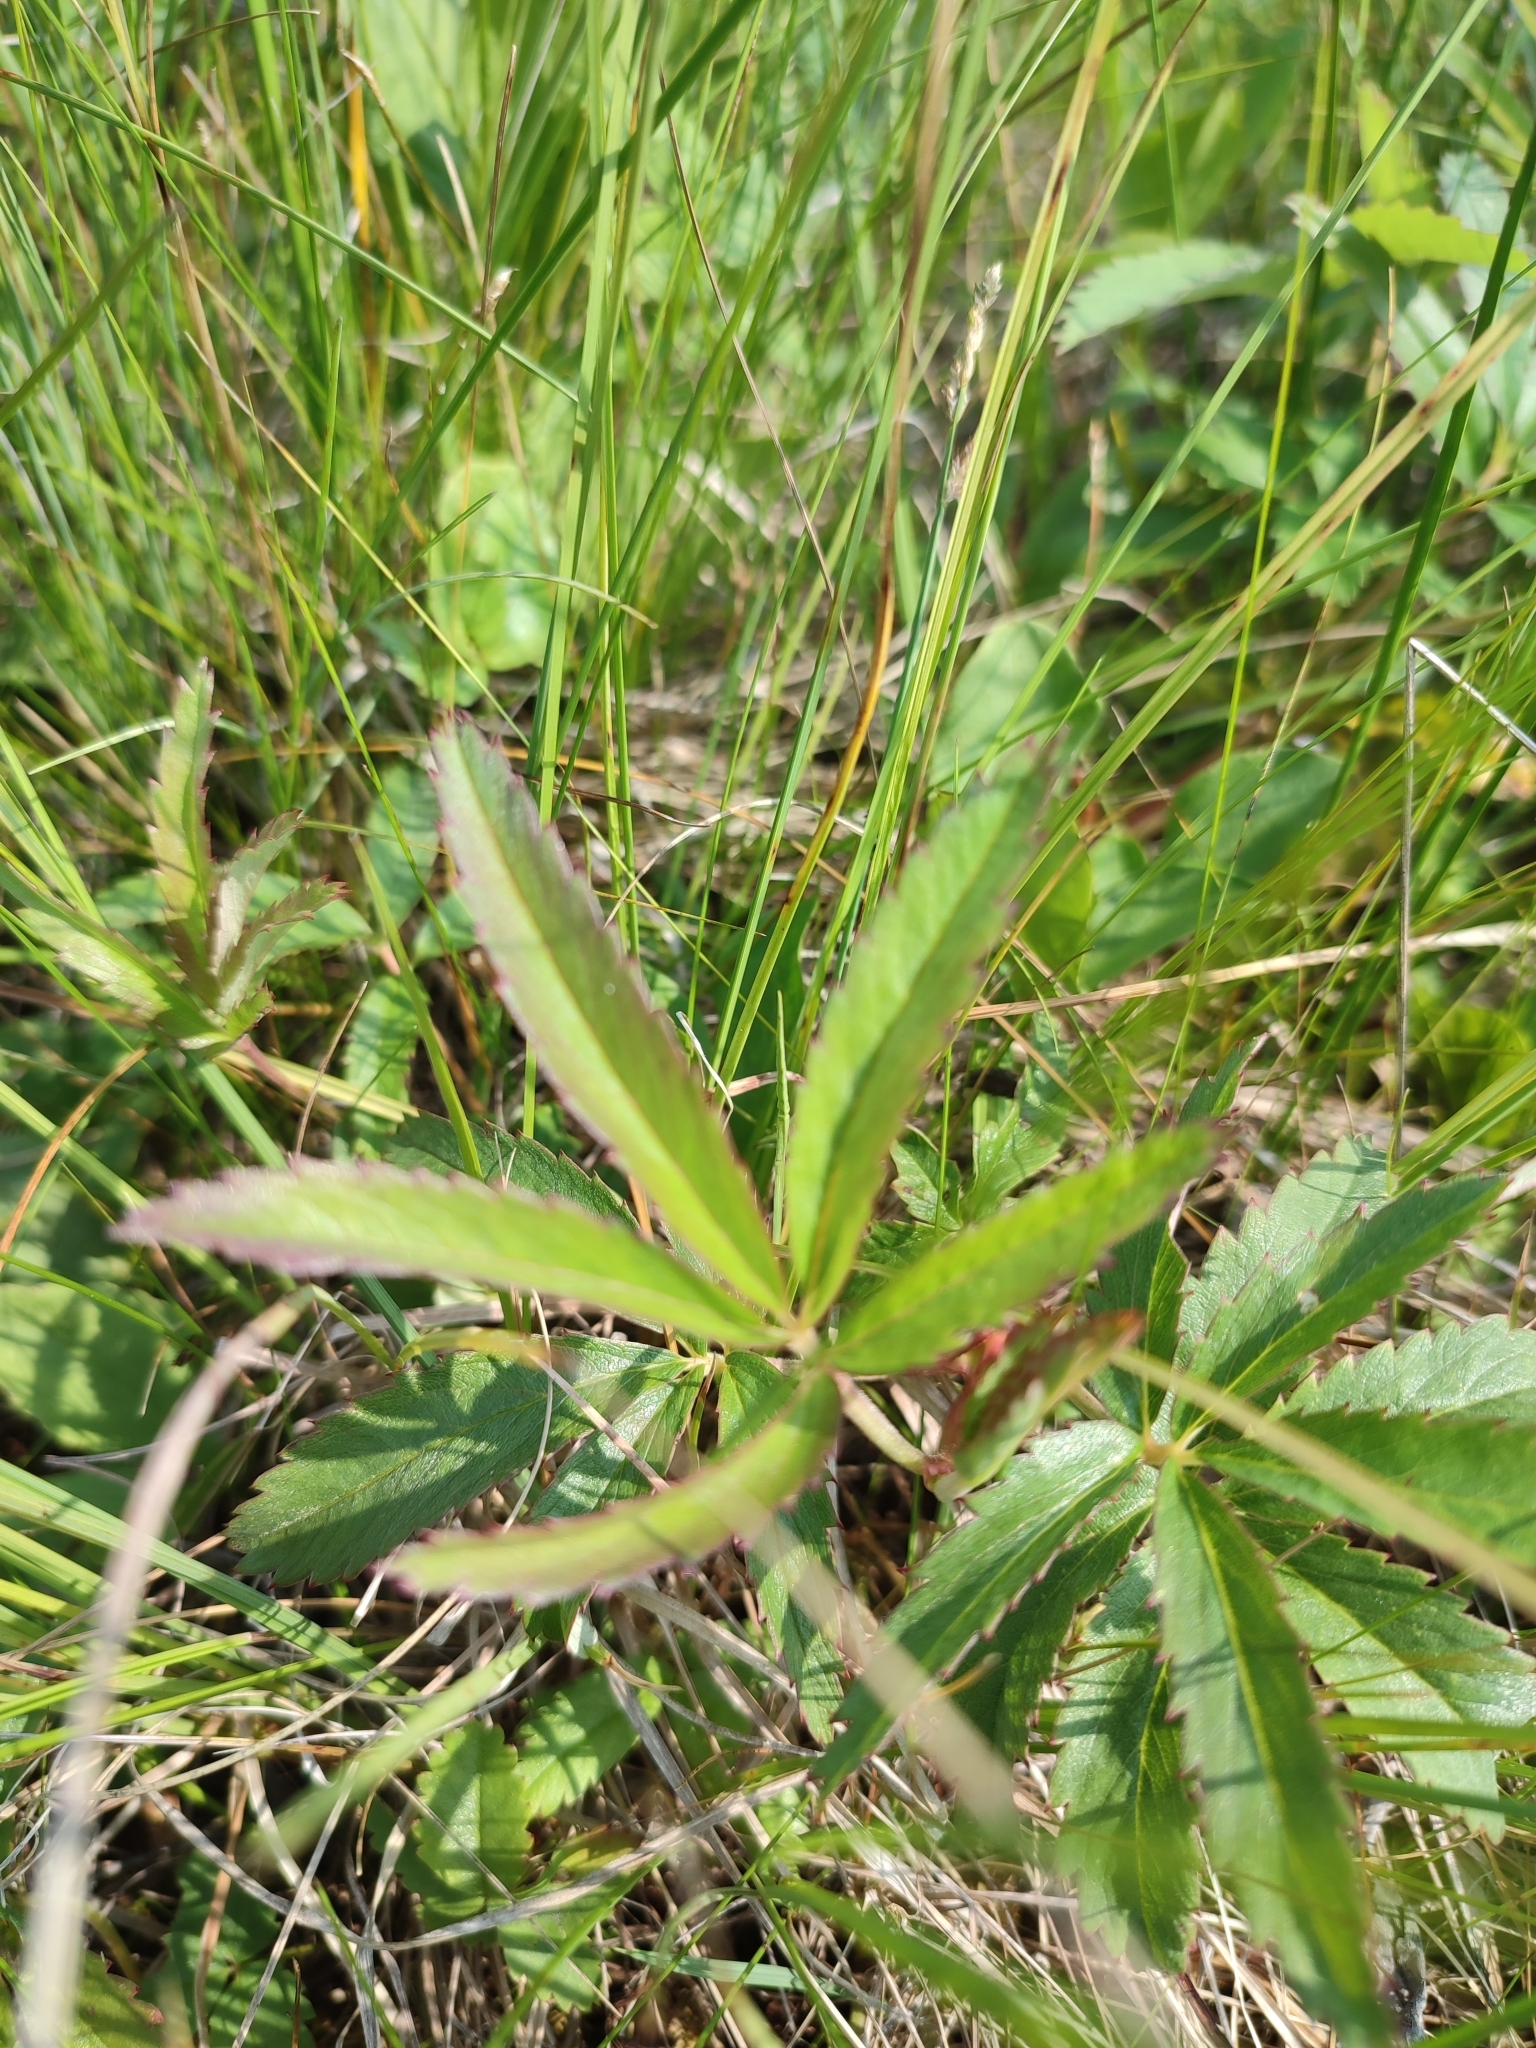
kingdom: Plantae
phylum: Tracheophyta
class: Magnoliopsida
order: Rosales
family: Rosaceae
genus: Comarum
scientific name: Comarum palustre
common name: Marsh cinquefoil
